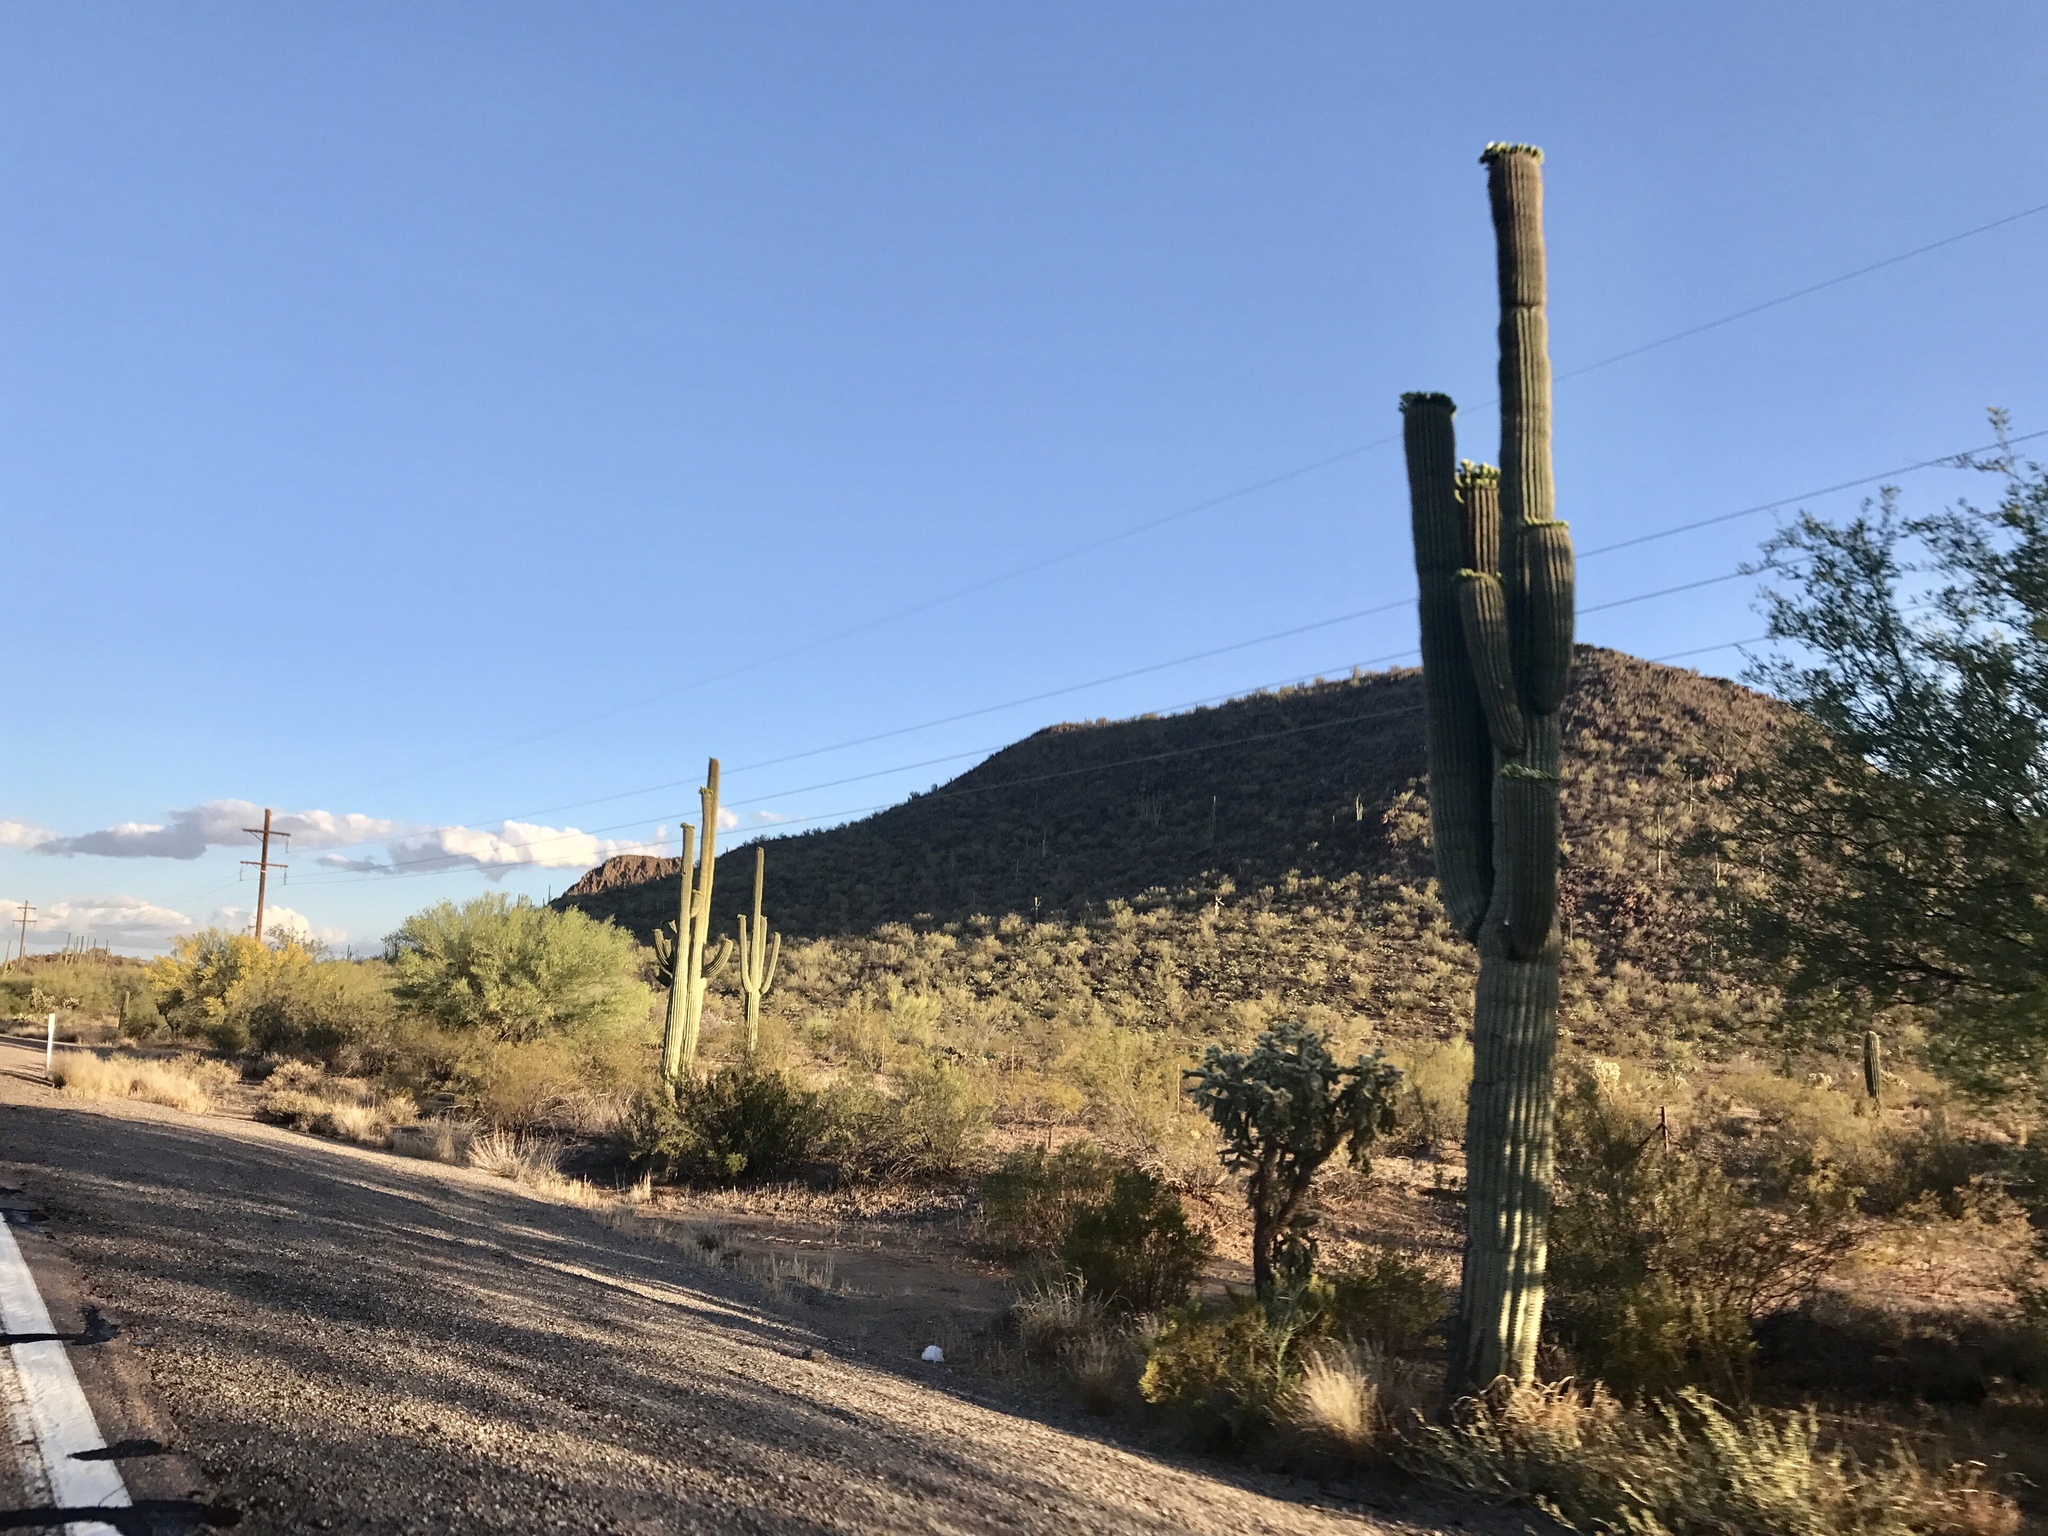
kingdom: Plantae
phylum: Tracheophyta
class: Magnoliopsida
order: Caryophyllales
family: Cactaceae
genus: Carnegiea
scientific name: Carnegiea gigantea
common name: Saguaro
